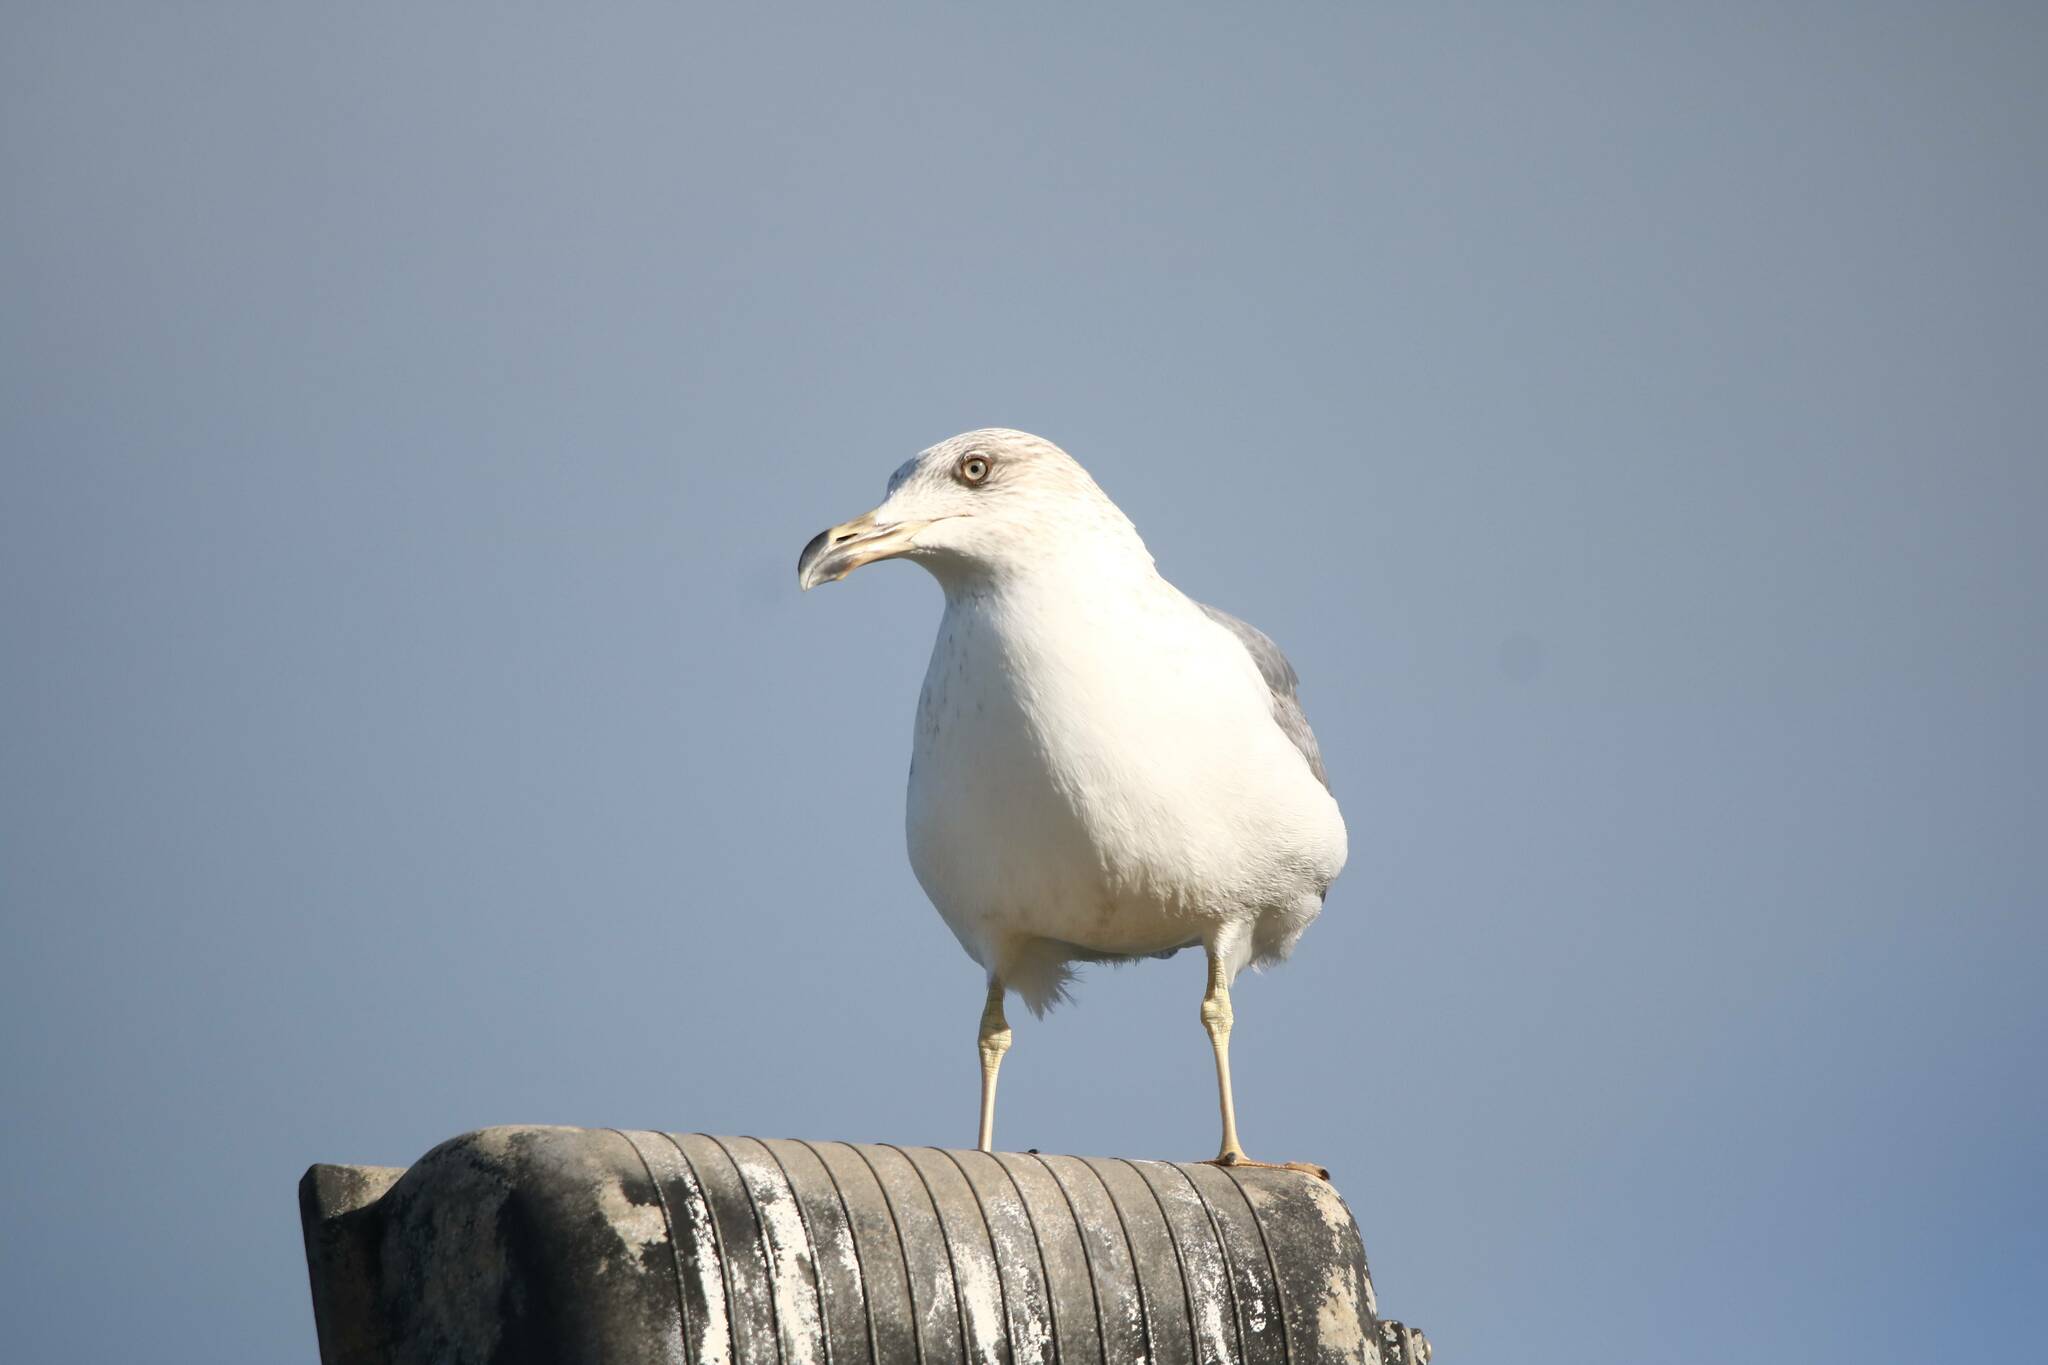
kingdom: Animalia
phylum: Chordata
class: Aves
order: Charadriiformes
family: Laridae
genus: Larus
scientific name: Larus michahellis
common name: Yellow-legged gull
